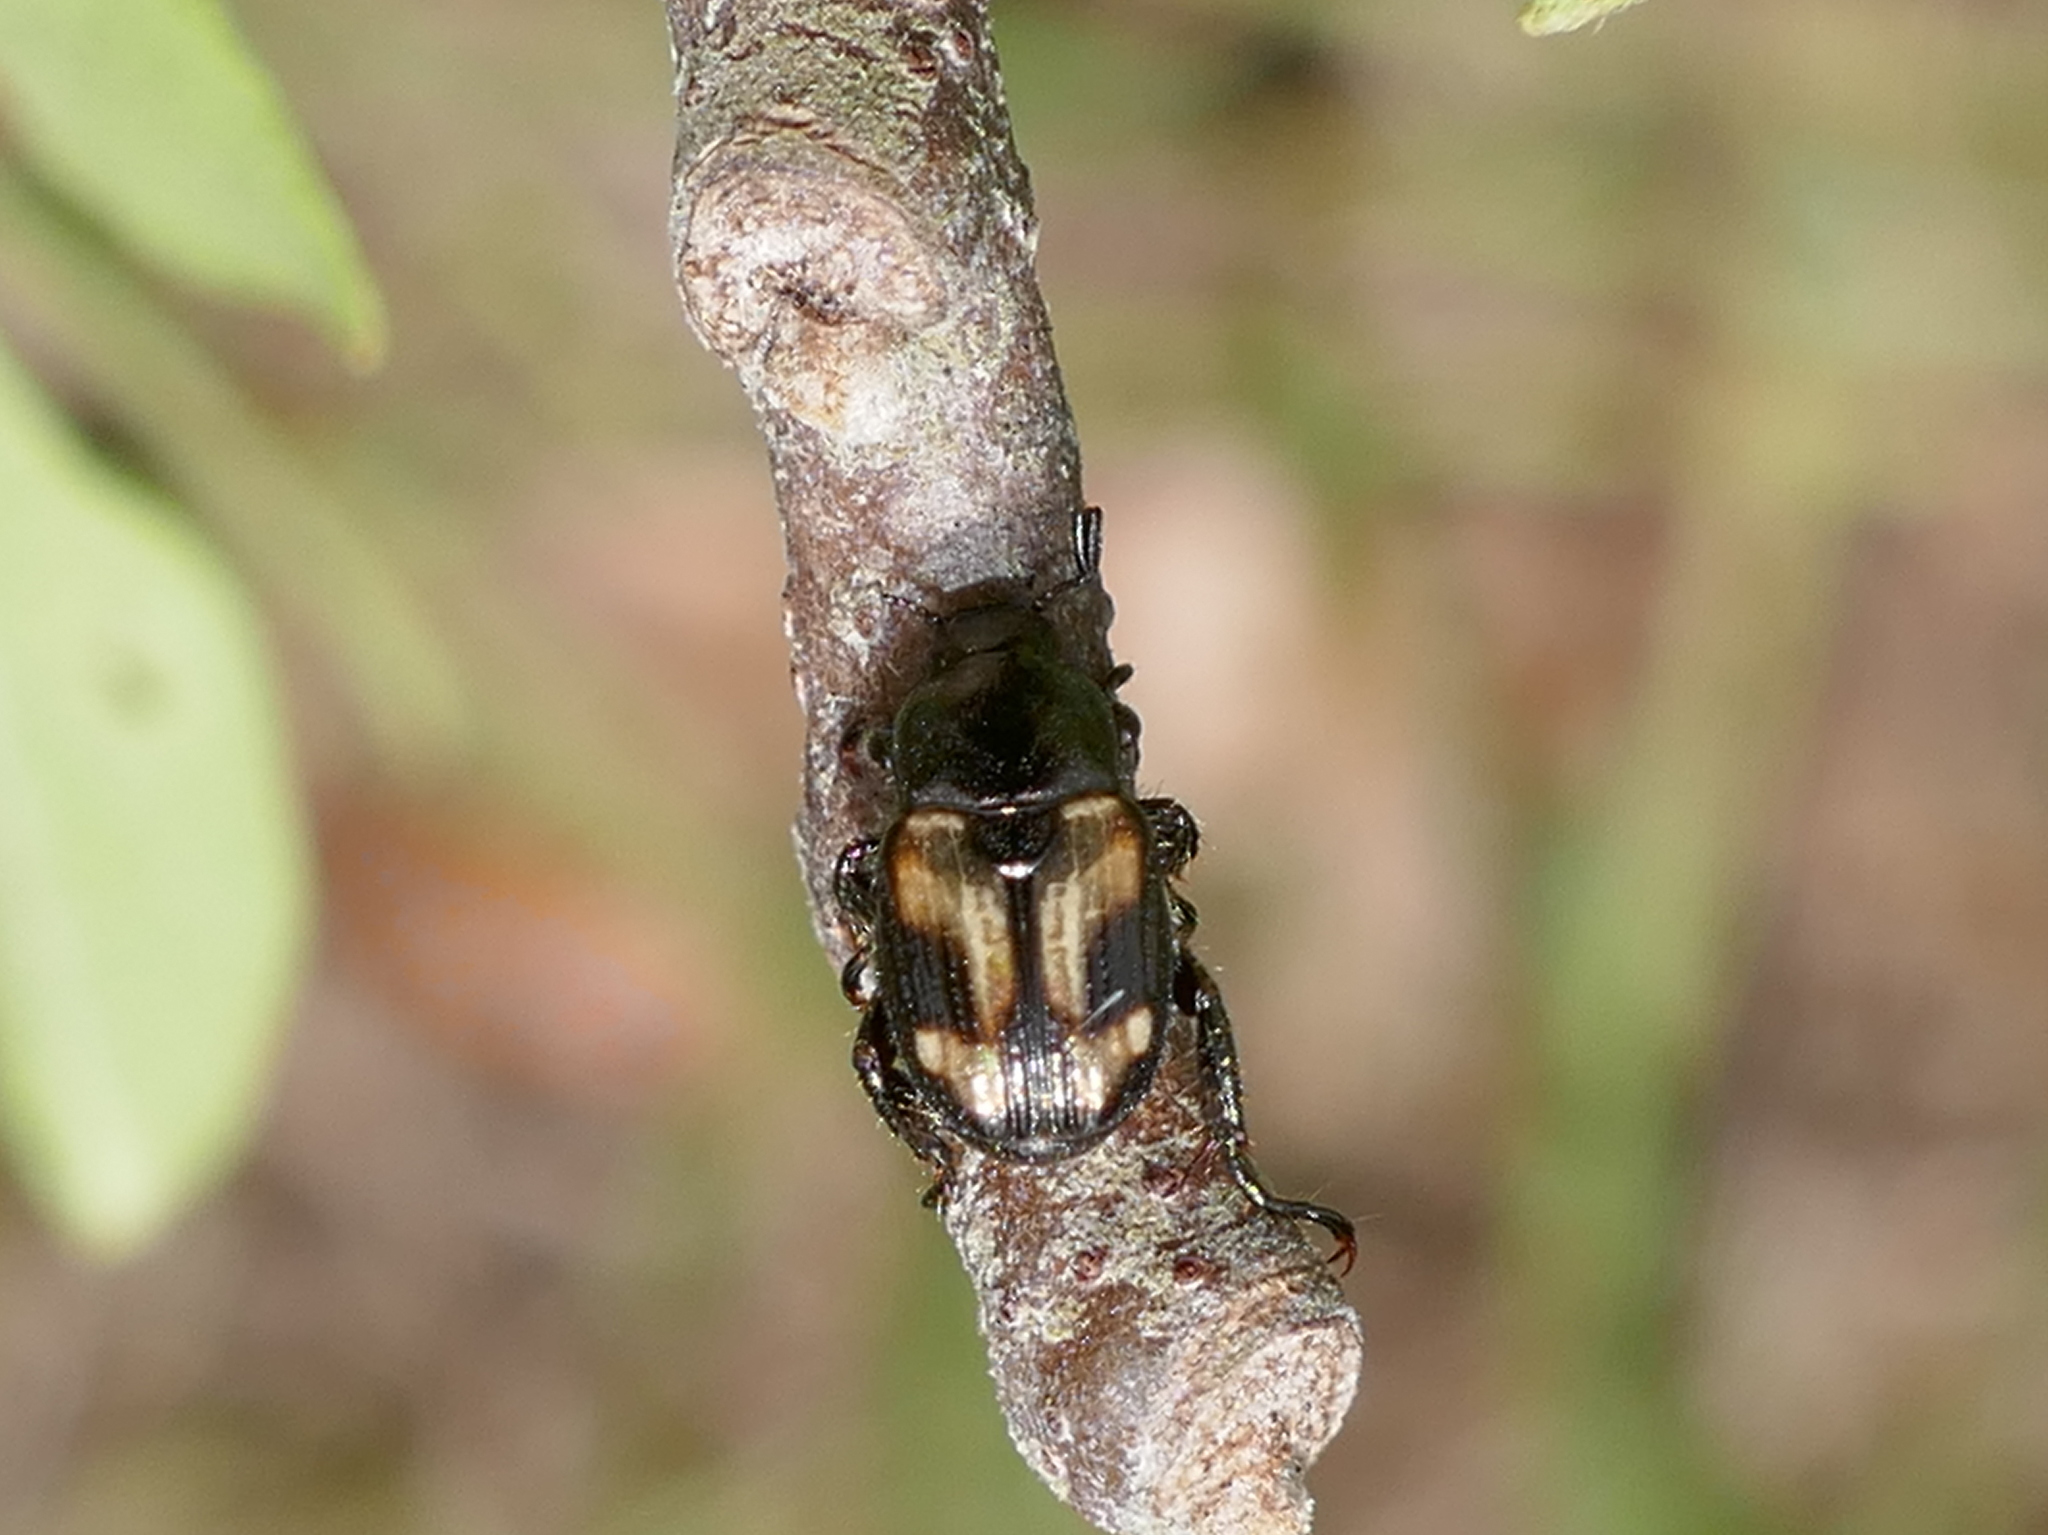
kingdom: Animalia
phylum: Arthropoda
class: Insecta
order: Coleoptera
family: Scarabaeidae
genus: Strigoderma
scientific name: Strigoderma pygmaea
